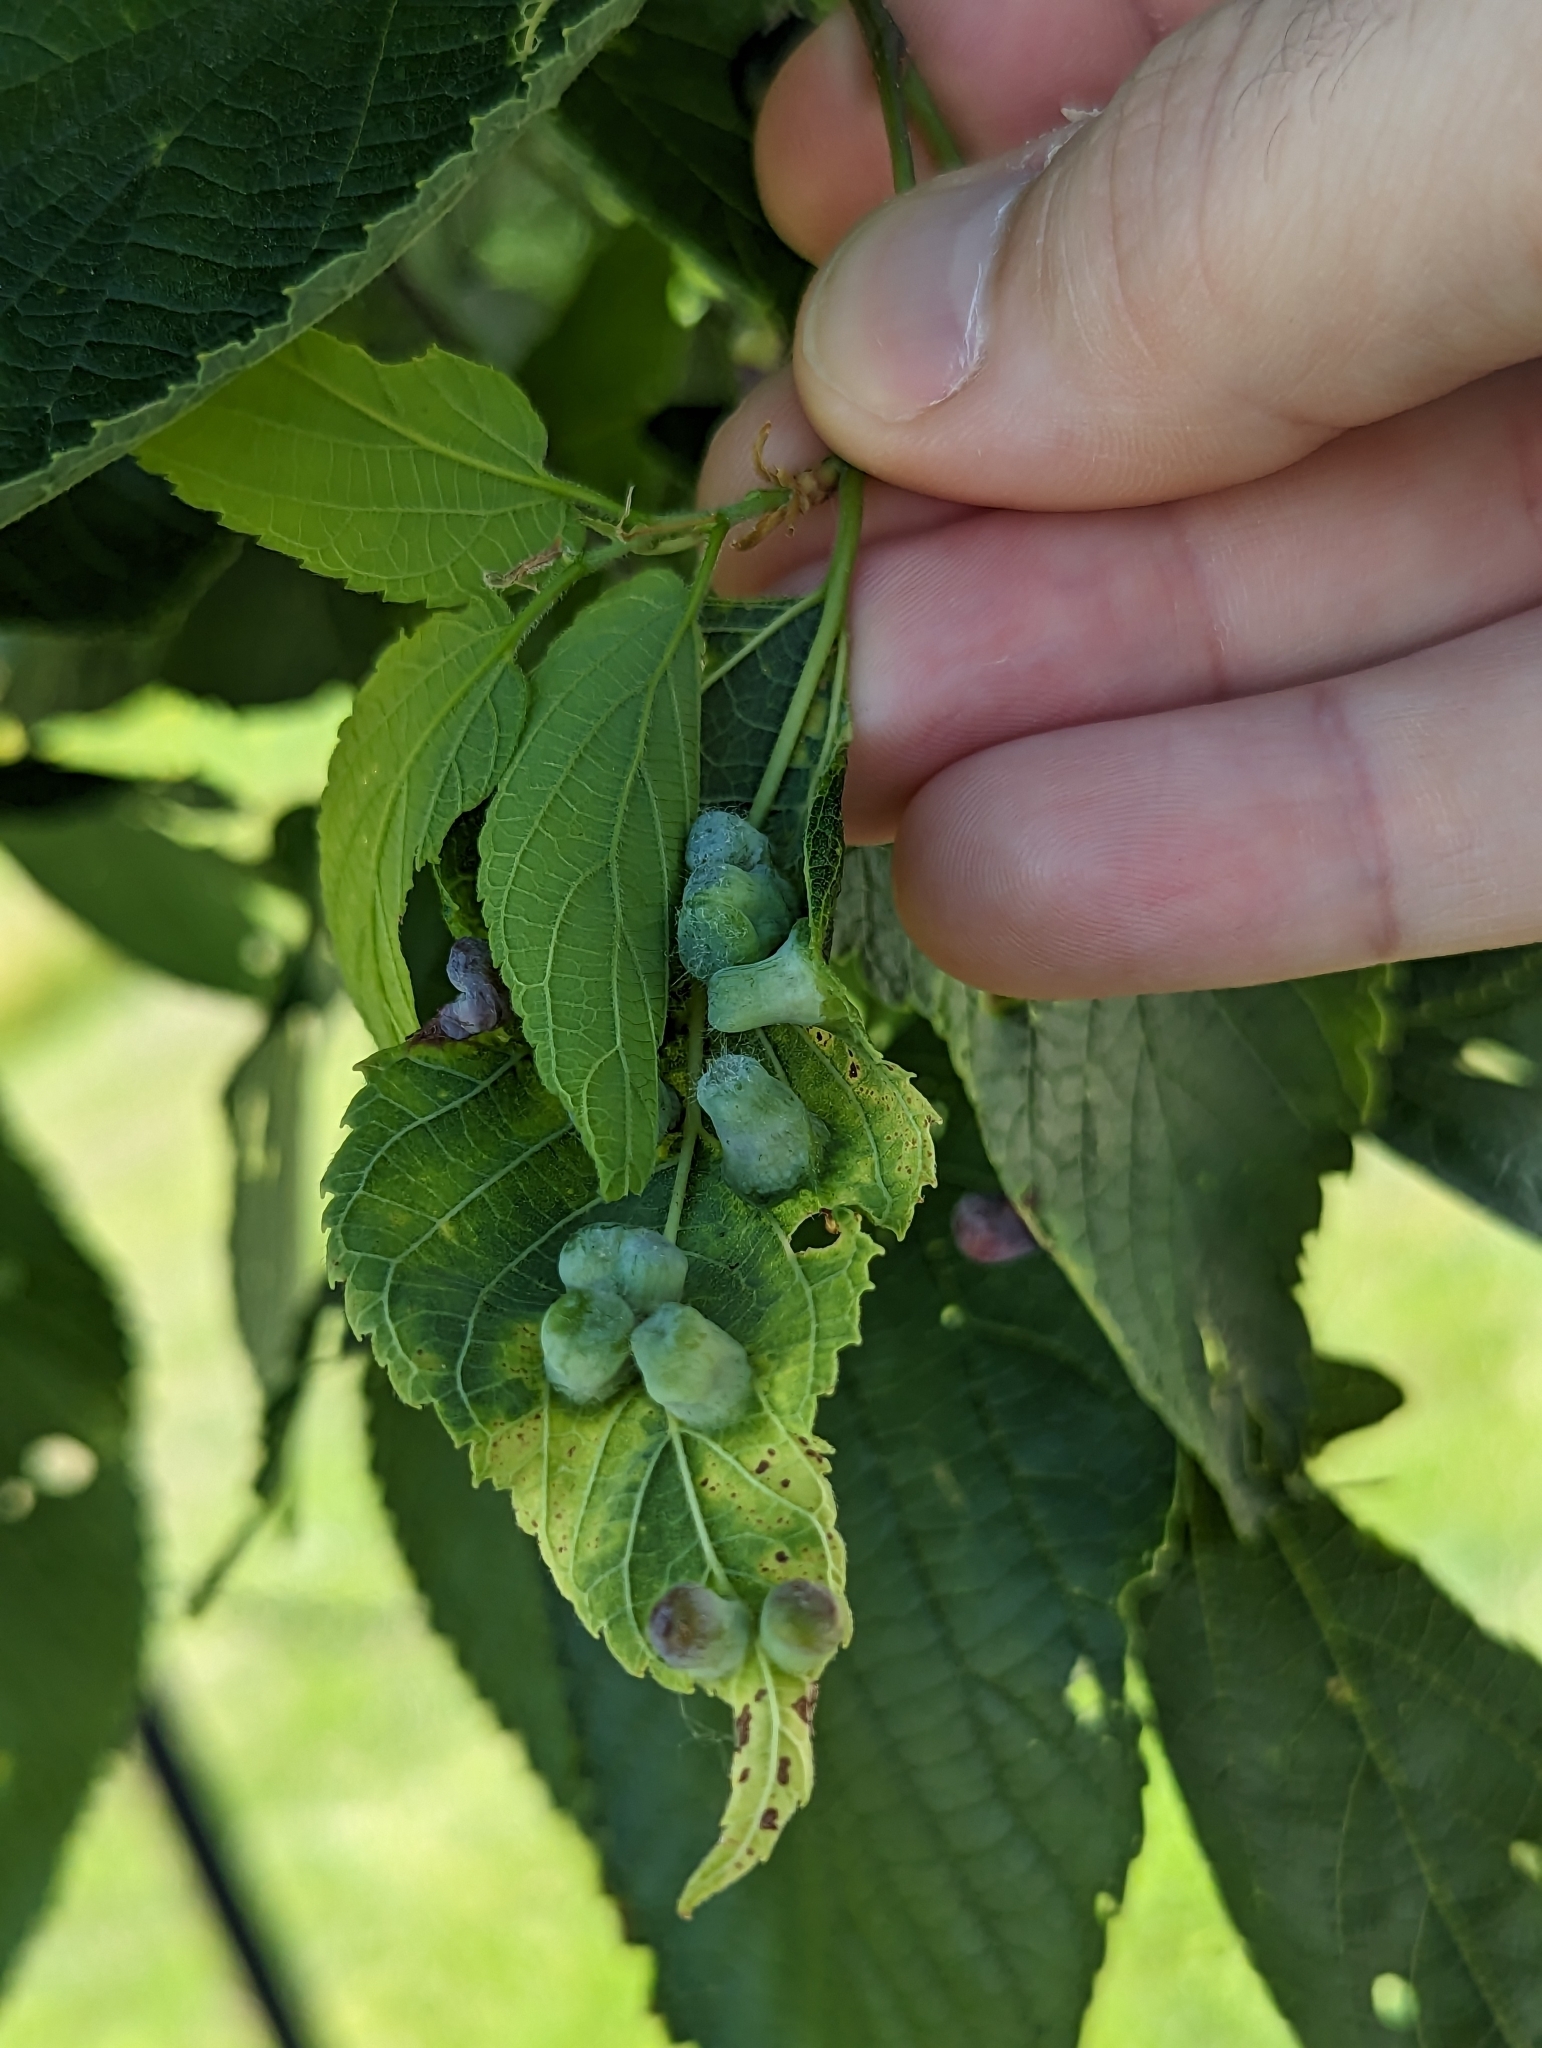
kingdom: Animalia
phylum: Arthropoda
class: Insecta
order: Hemiptera
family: Aphalaridae
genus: Pachypsylla
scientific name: Pachypsylla celtidismamma
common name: Hackberry nipplegall psyllid
